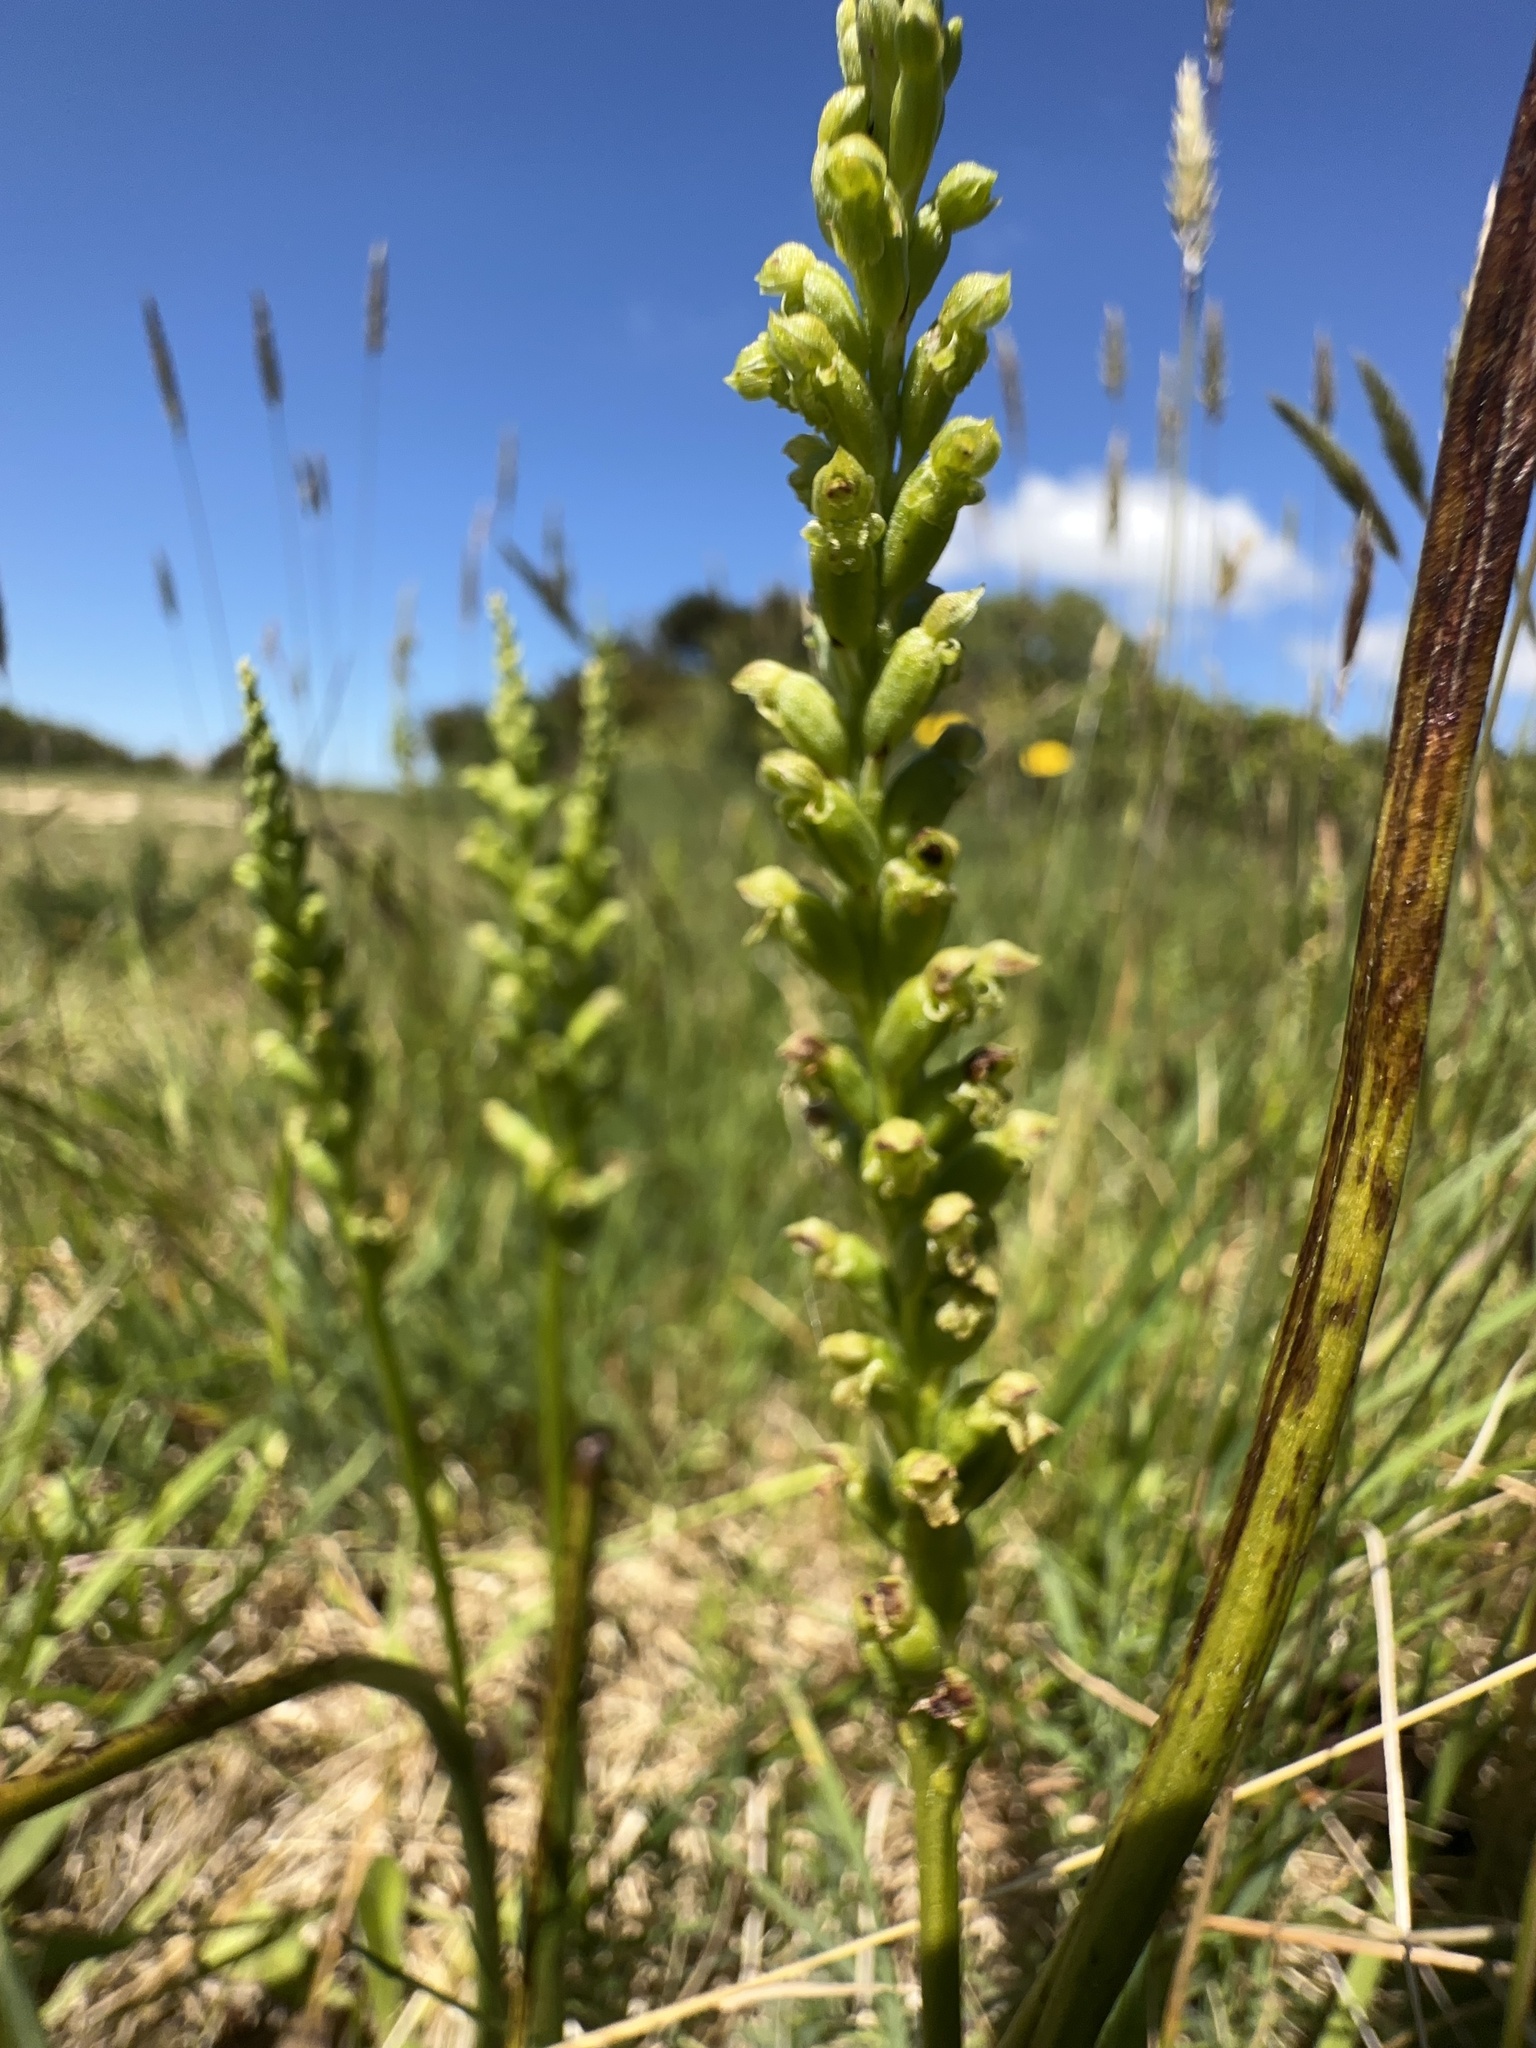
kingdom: Plantae
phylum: Tracheophyta
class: Liliopsida
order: Asparagales
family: Orchidaceae
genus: Microtis
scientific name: Microtis unifolia
